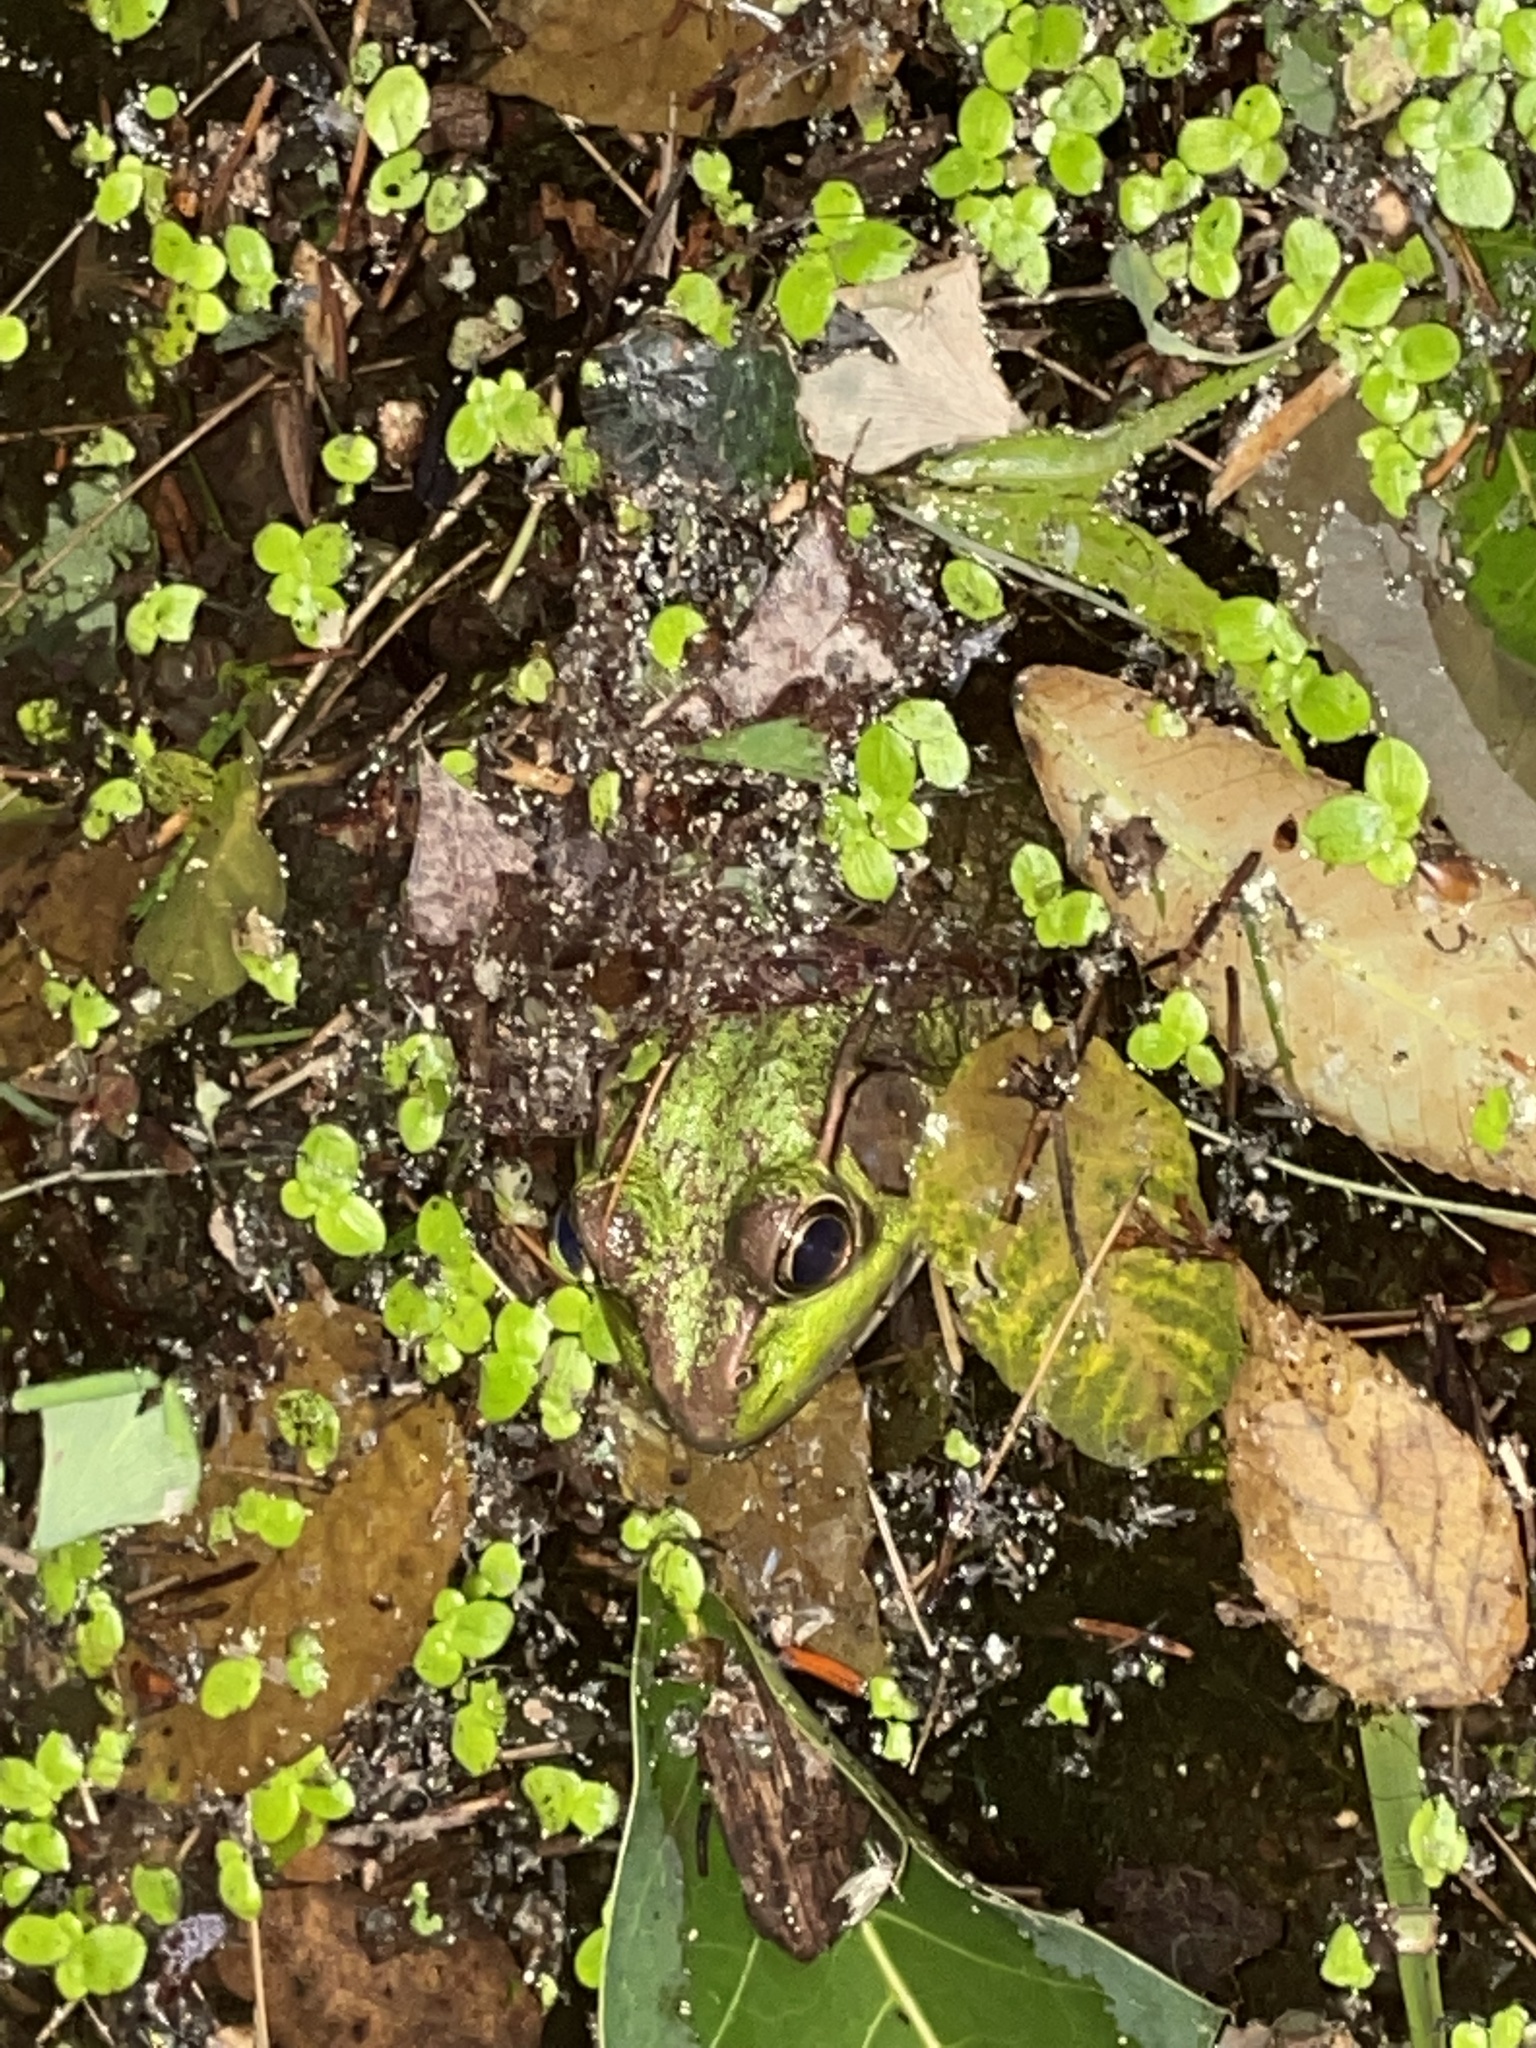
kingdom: Animalia
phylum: Chordata
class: Amphibia
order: Anura
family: Ranidae
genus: Lithobates
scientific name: Lithobates clamitans
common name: Green frog
